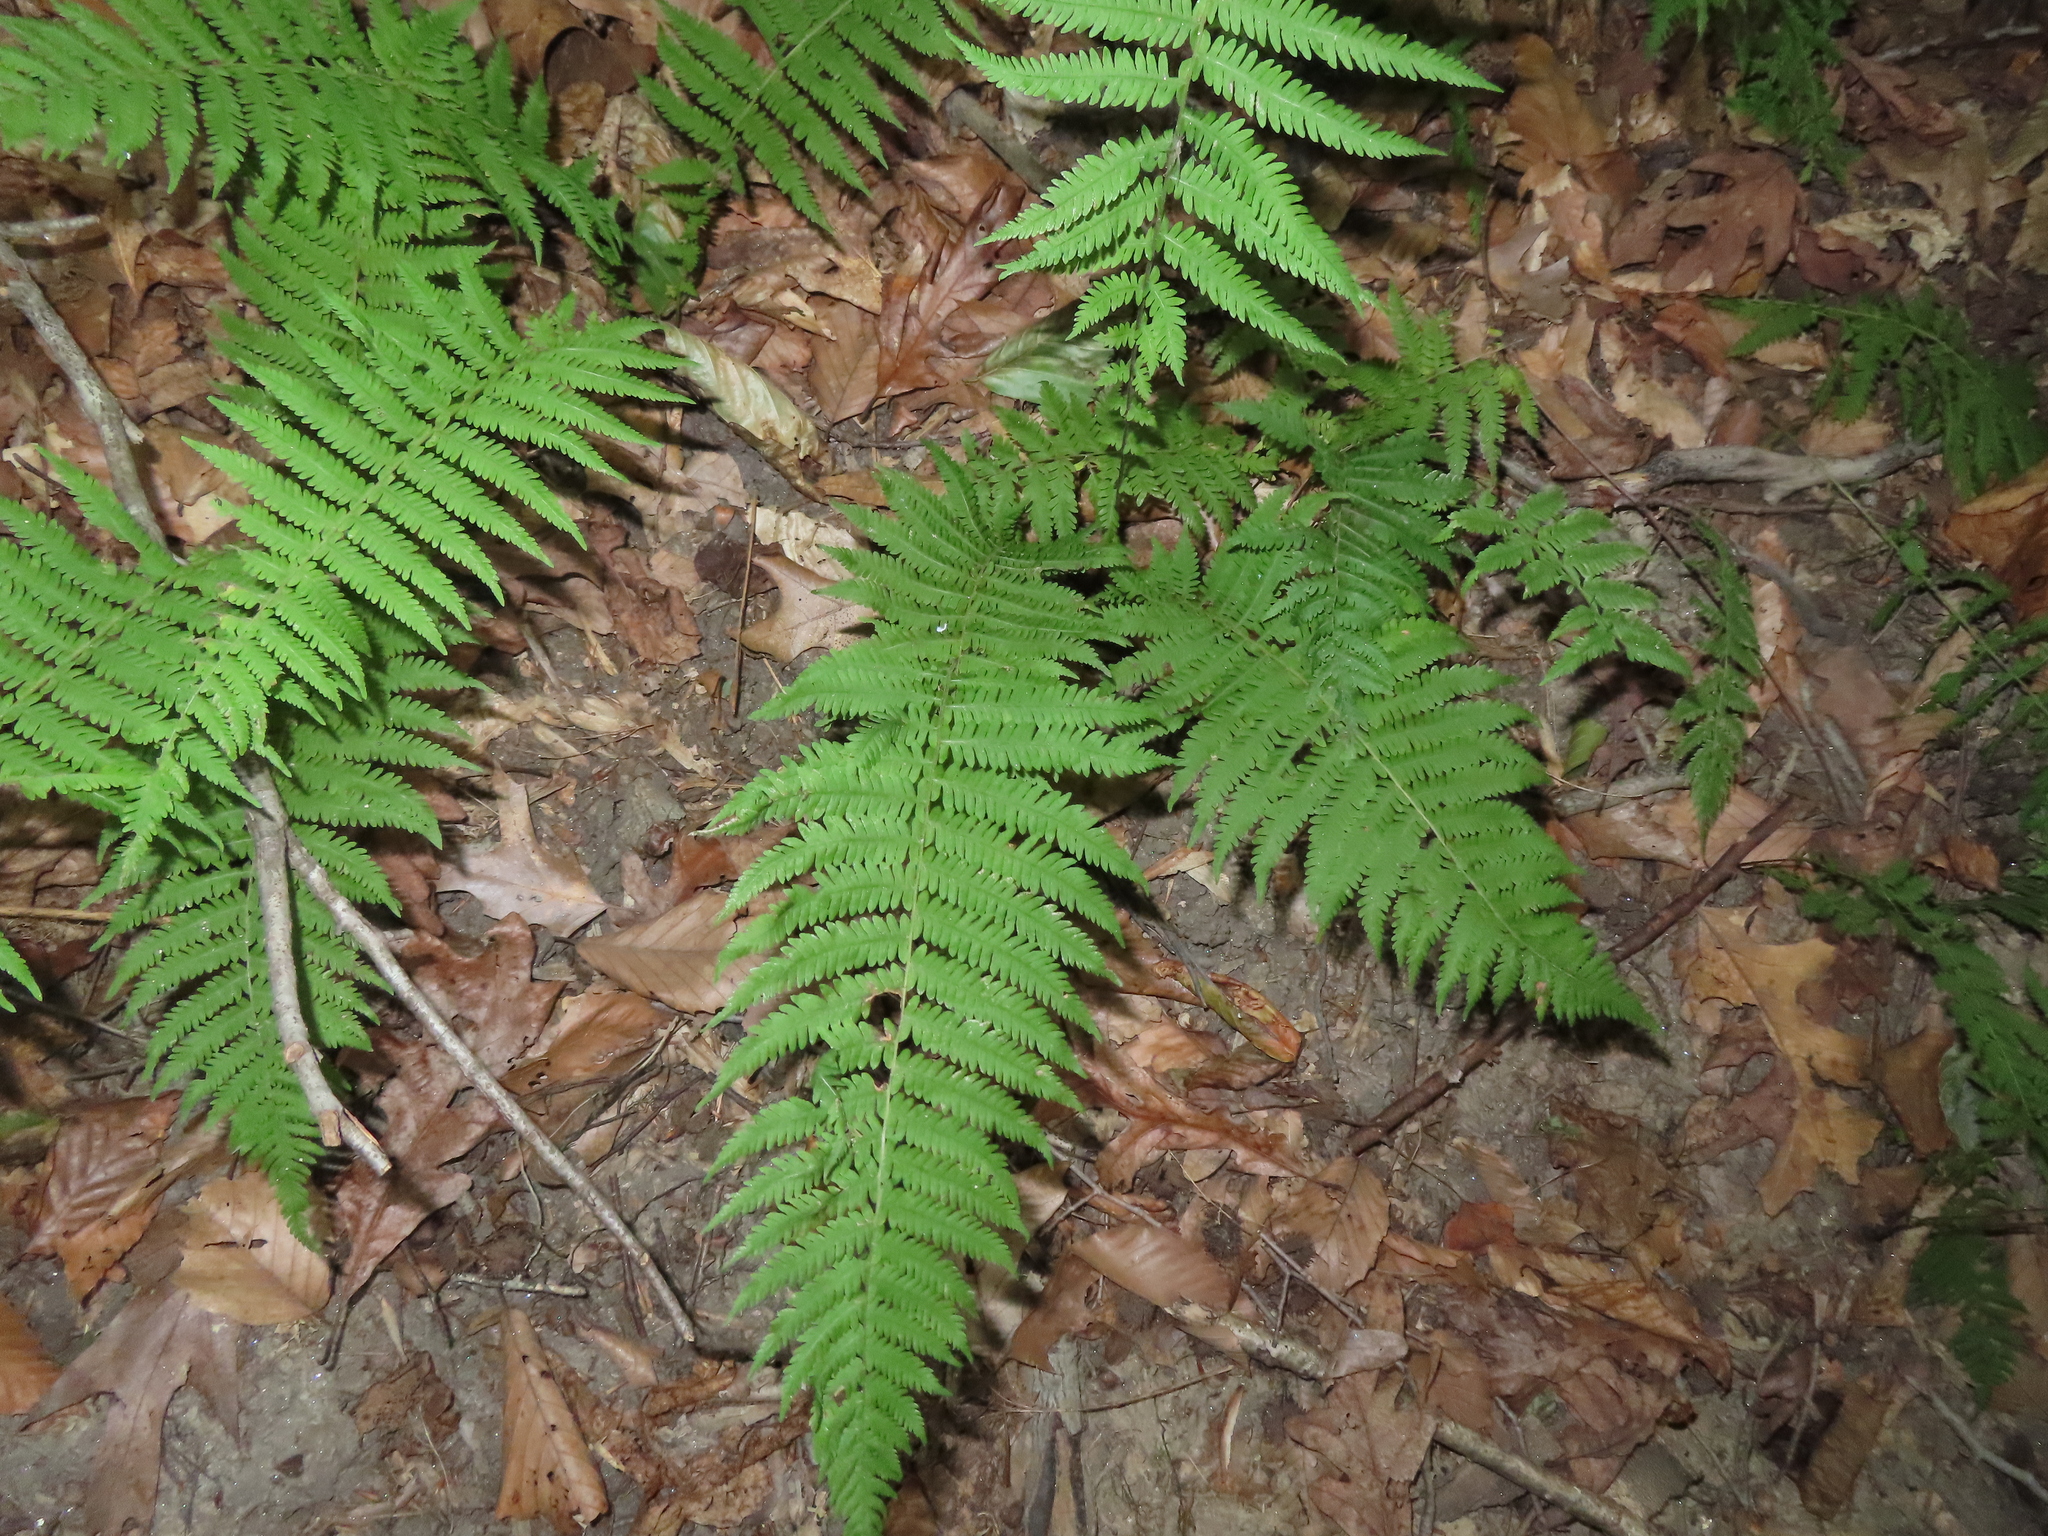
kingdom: Plantae
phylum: Tracheophyta
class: Polypodiopsida
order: Polypodiales
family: Thelypteridaceae
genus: Amauropelta
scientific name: Amauropelta noveboracensis
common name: New york fern
